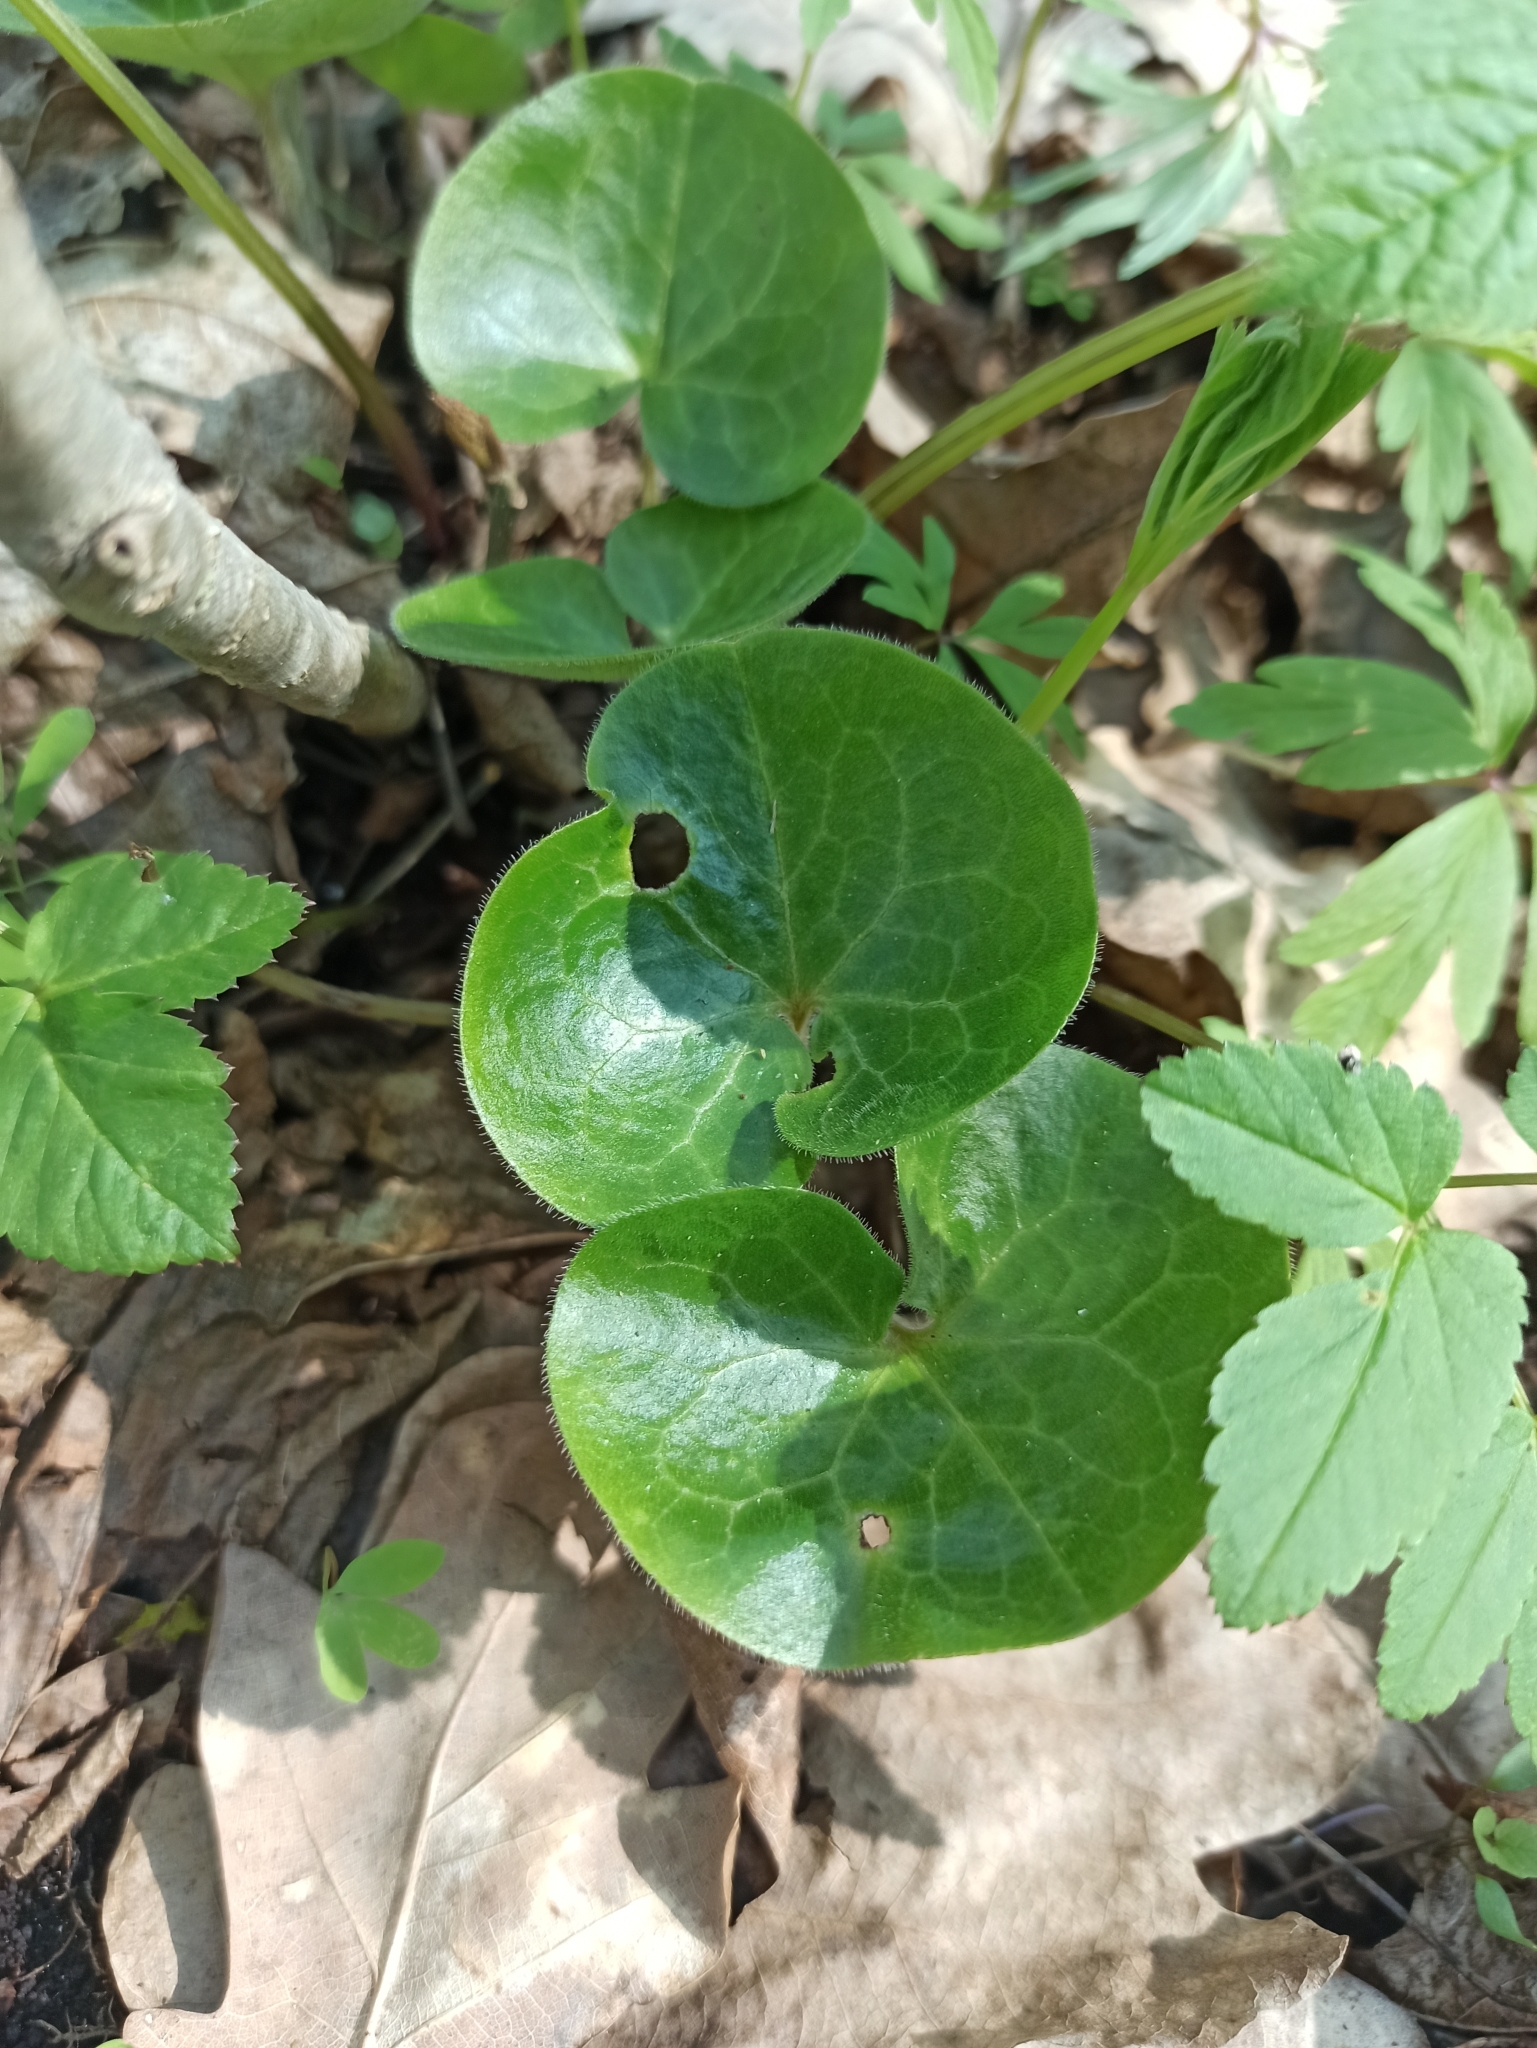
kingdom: Plantae
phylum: Tracheophyta
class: Magnoliopsida
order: Piperales
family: Aristolochiaceae
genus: Asarum
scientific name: Asarum europaeum
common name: Asarabacca
